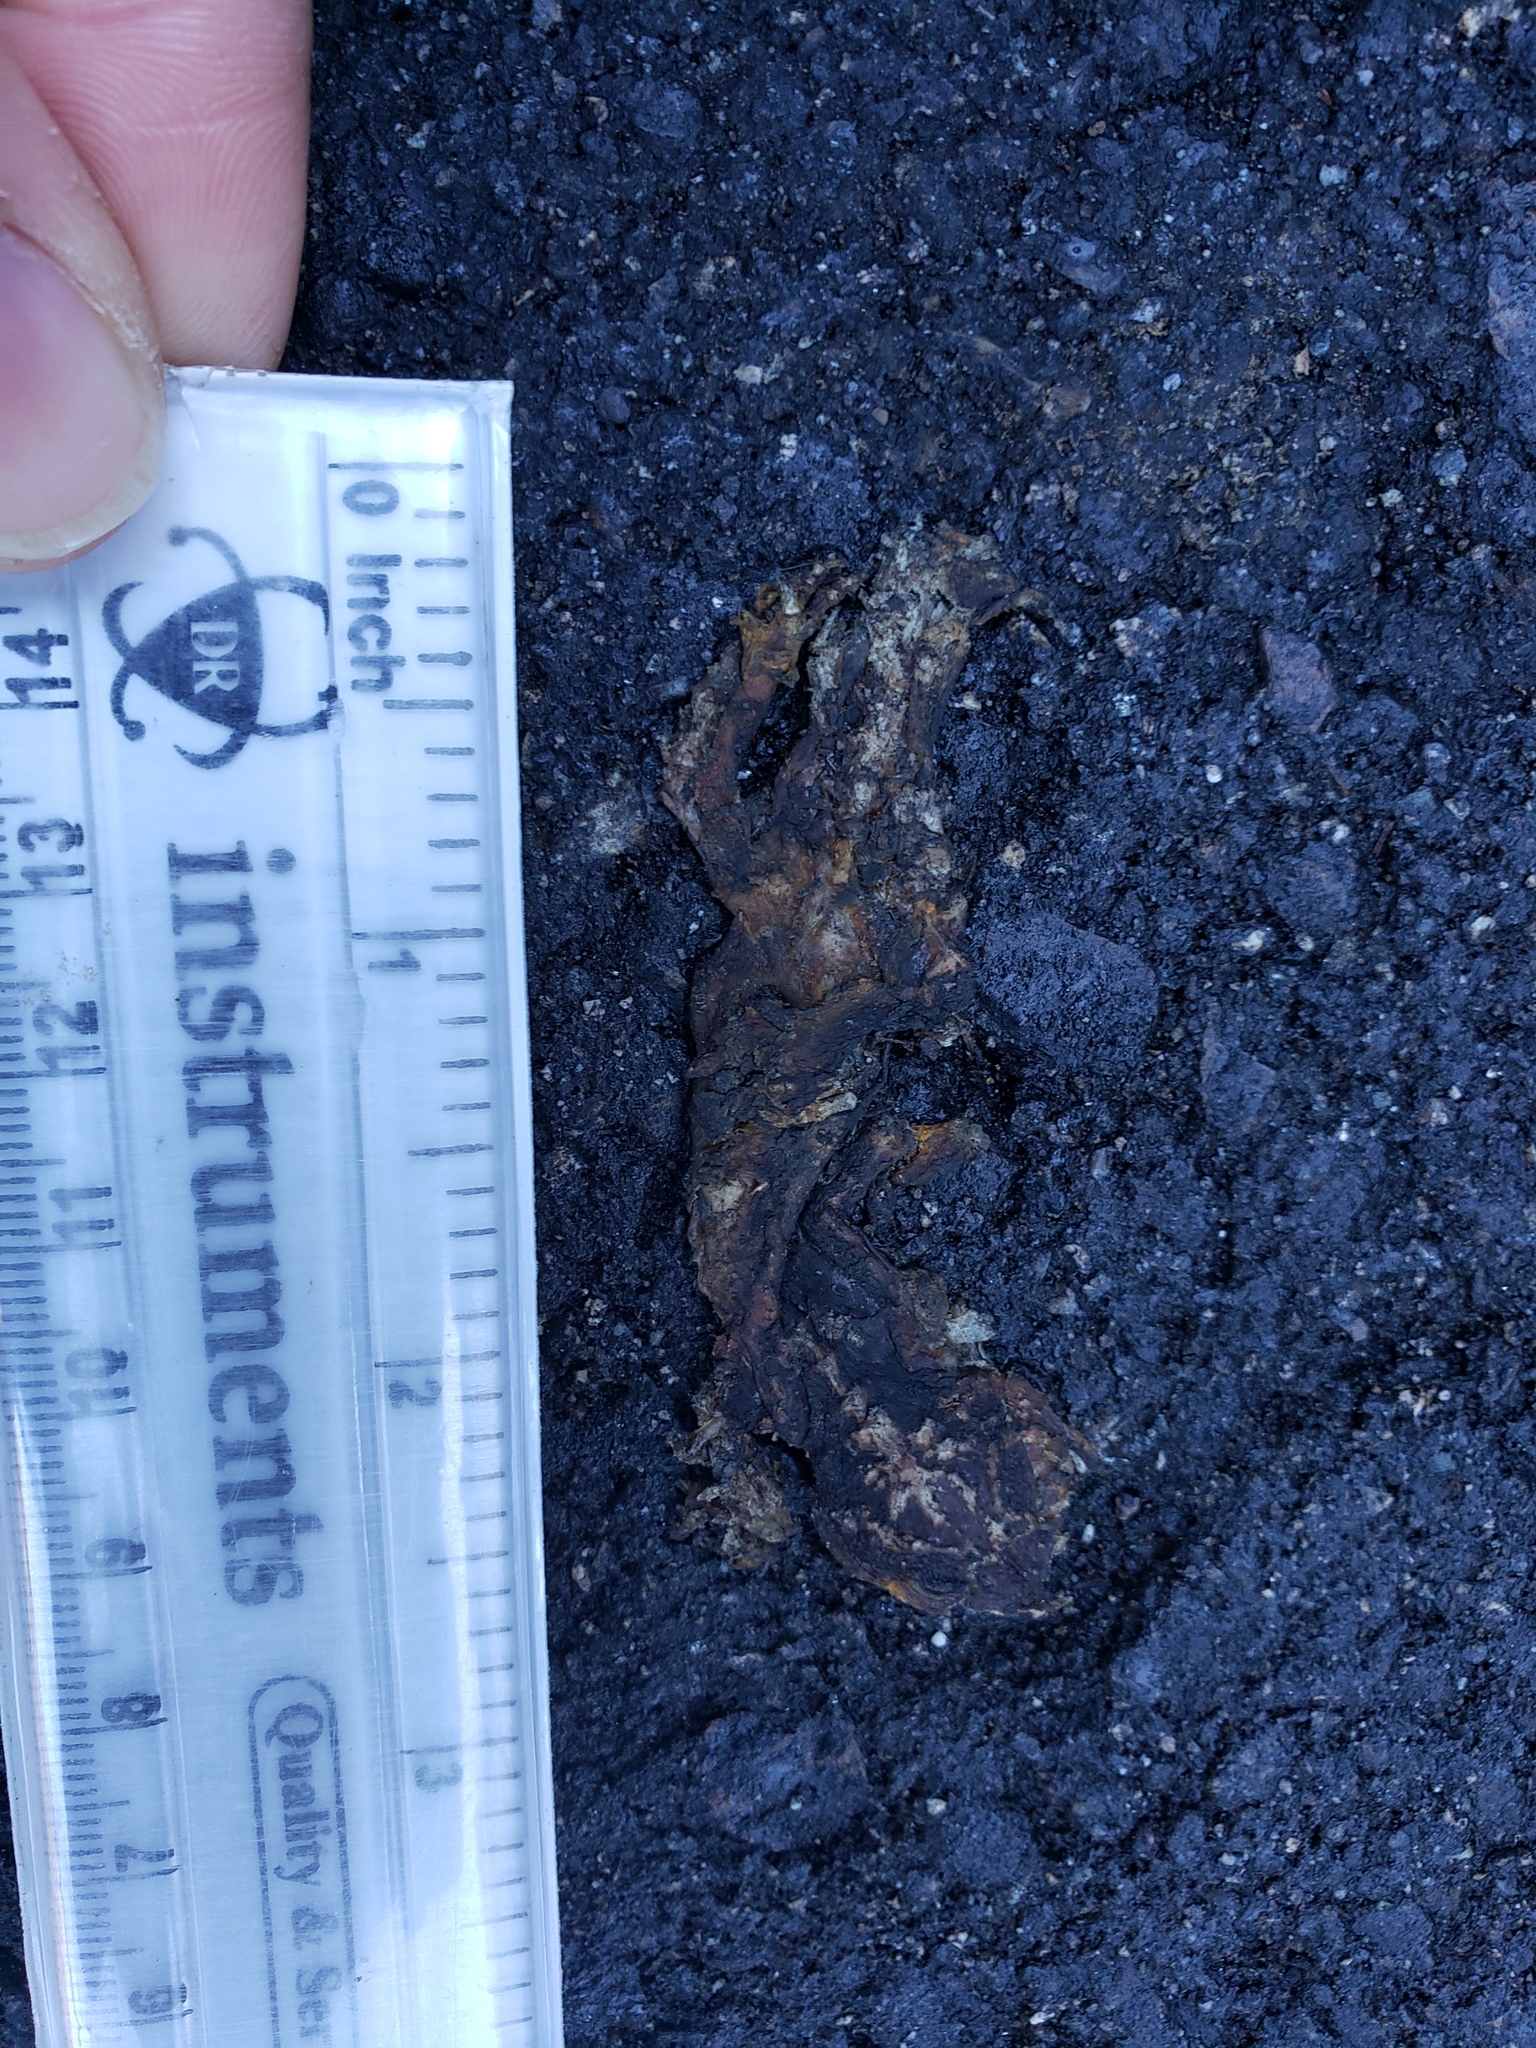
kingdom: Animalia
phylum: Chordata
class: Amphibia
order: Caudata
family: Salamandridae
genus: Taricha
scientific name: Taricha
